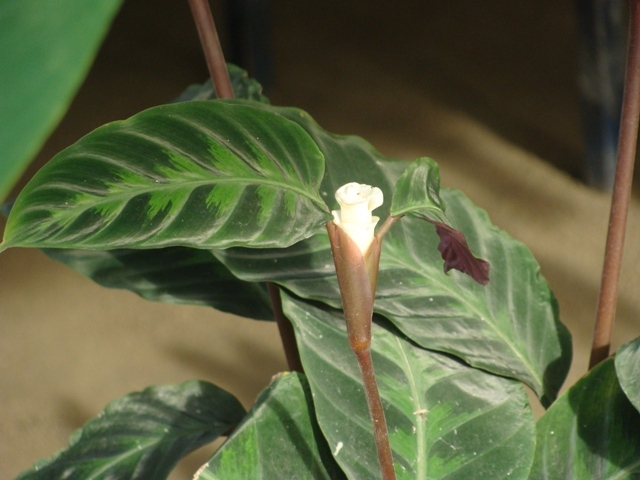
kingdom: Plantae
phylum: Tracheophyta
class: Liliopsida
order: Zingiberales
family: Marantaceae
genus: Goeppertia
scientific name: Goeppertia warszewiczii
